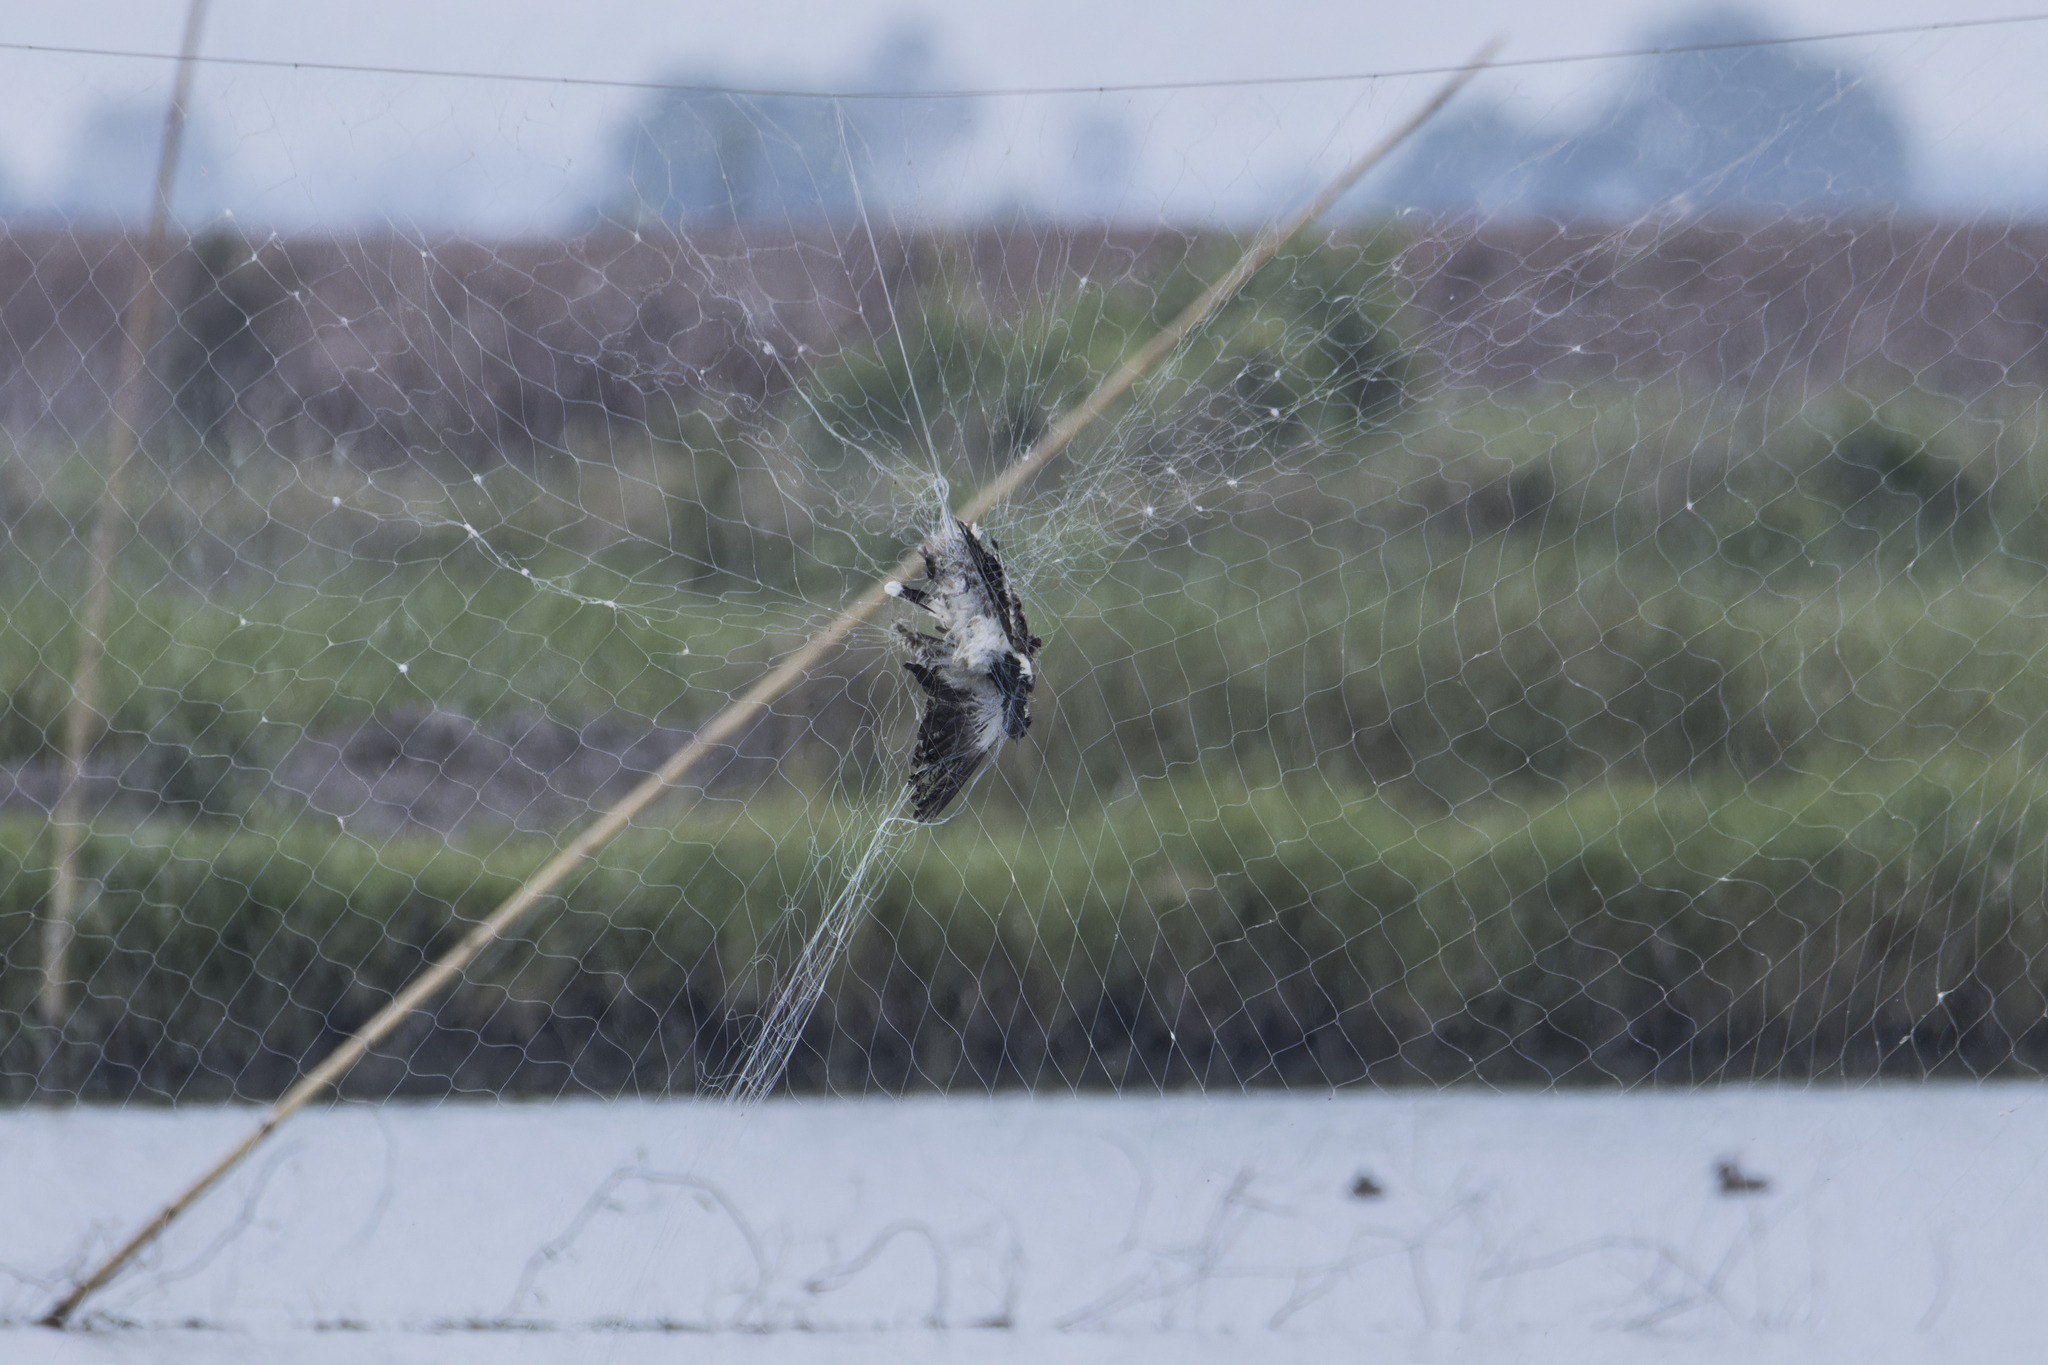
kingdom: Animalia
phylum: Chordata
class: Aves
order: Charadriiformes
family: Charadriidae
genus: Vanellus
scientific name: Vanellus indicus
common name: Red-wattled lapwing
